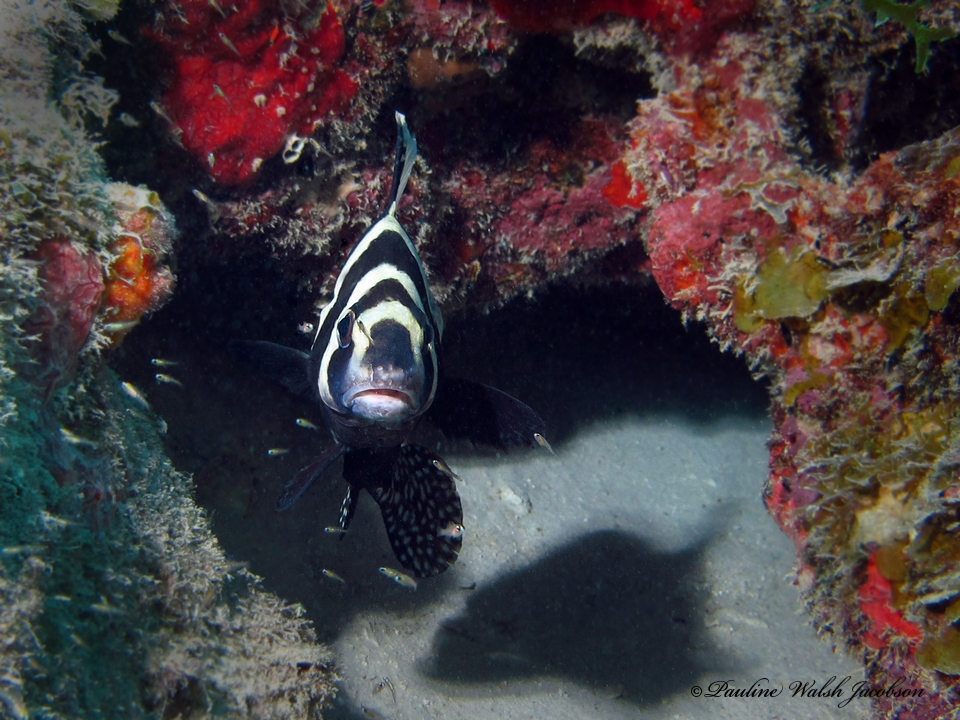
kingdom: Animalia
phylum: Chordata
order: Perciformes
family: Sciaenidae
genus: Equetus
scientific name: Equetus punctatus
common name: Spotted drum
